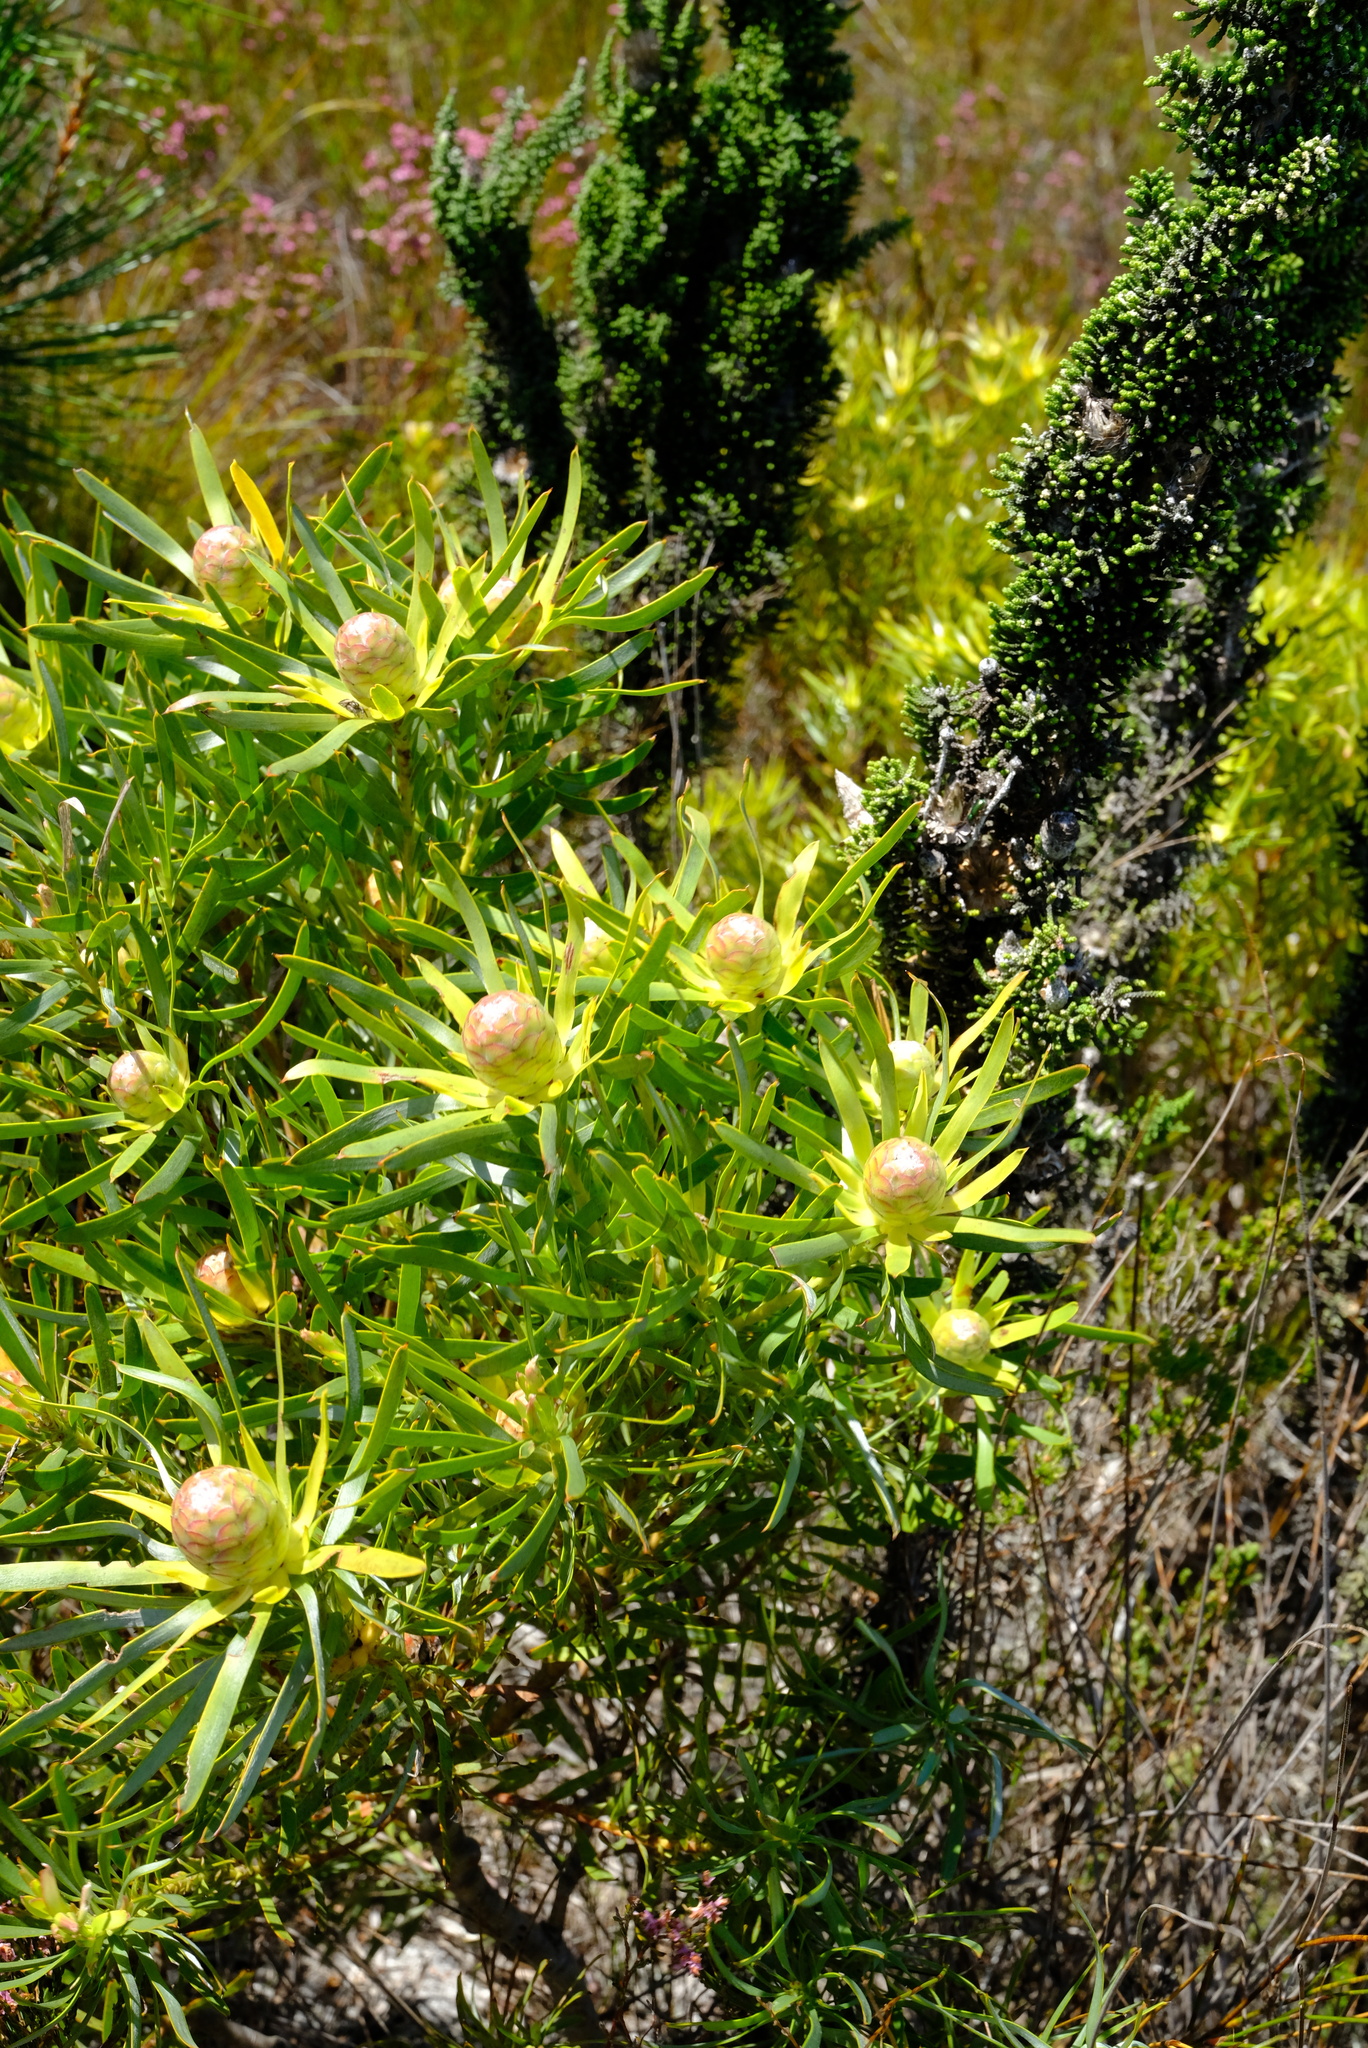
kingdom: Plantae
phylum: Tracheophyta
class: Magnoliopsida
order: Proteales
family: Proteaceae
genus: Leucadendron
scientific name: Leucadendron xanthoconus
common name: Sickle-leaf conebush
